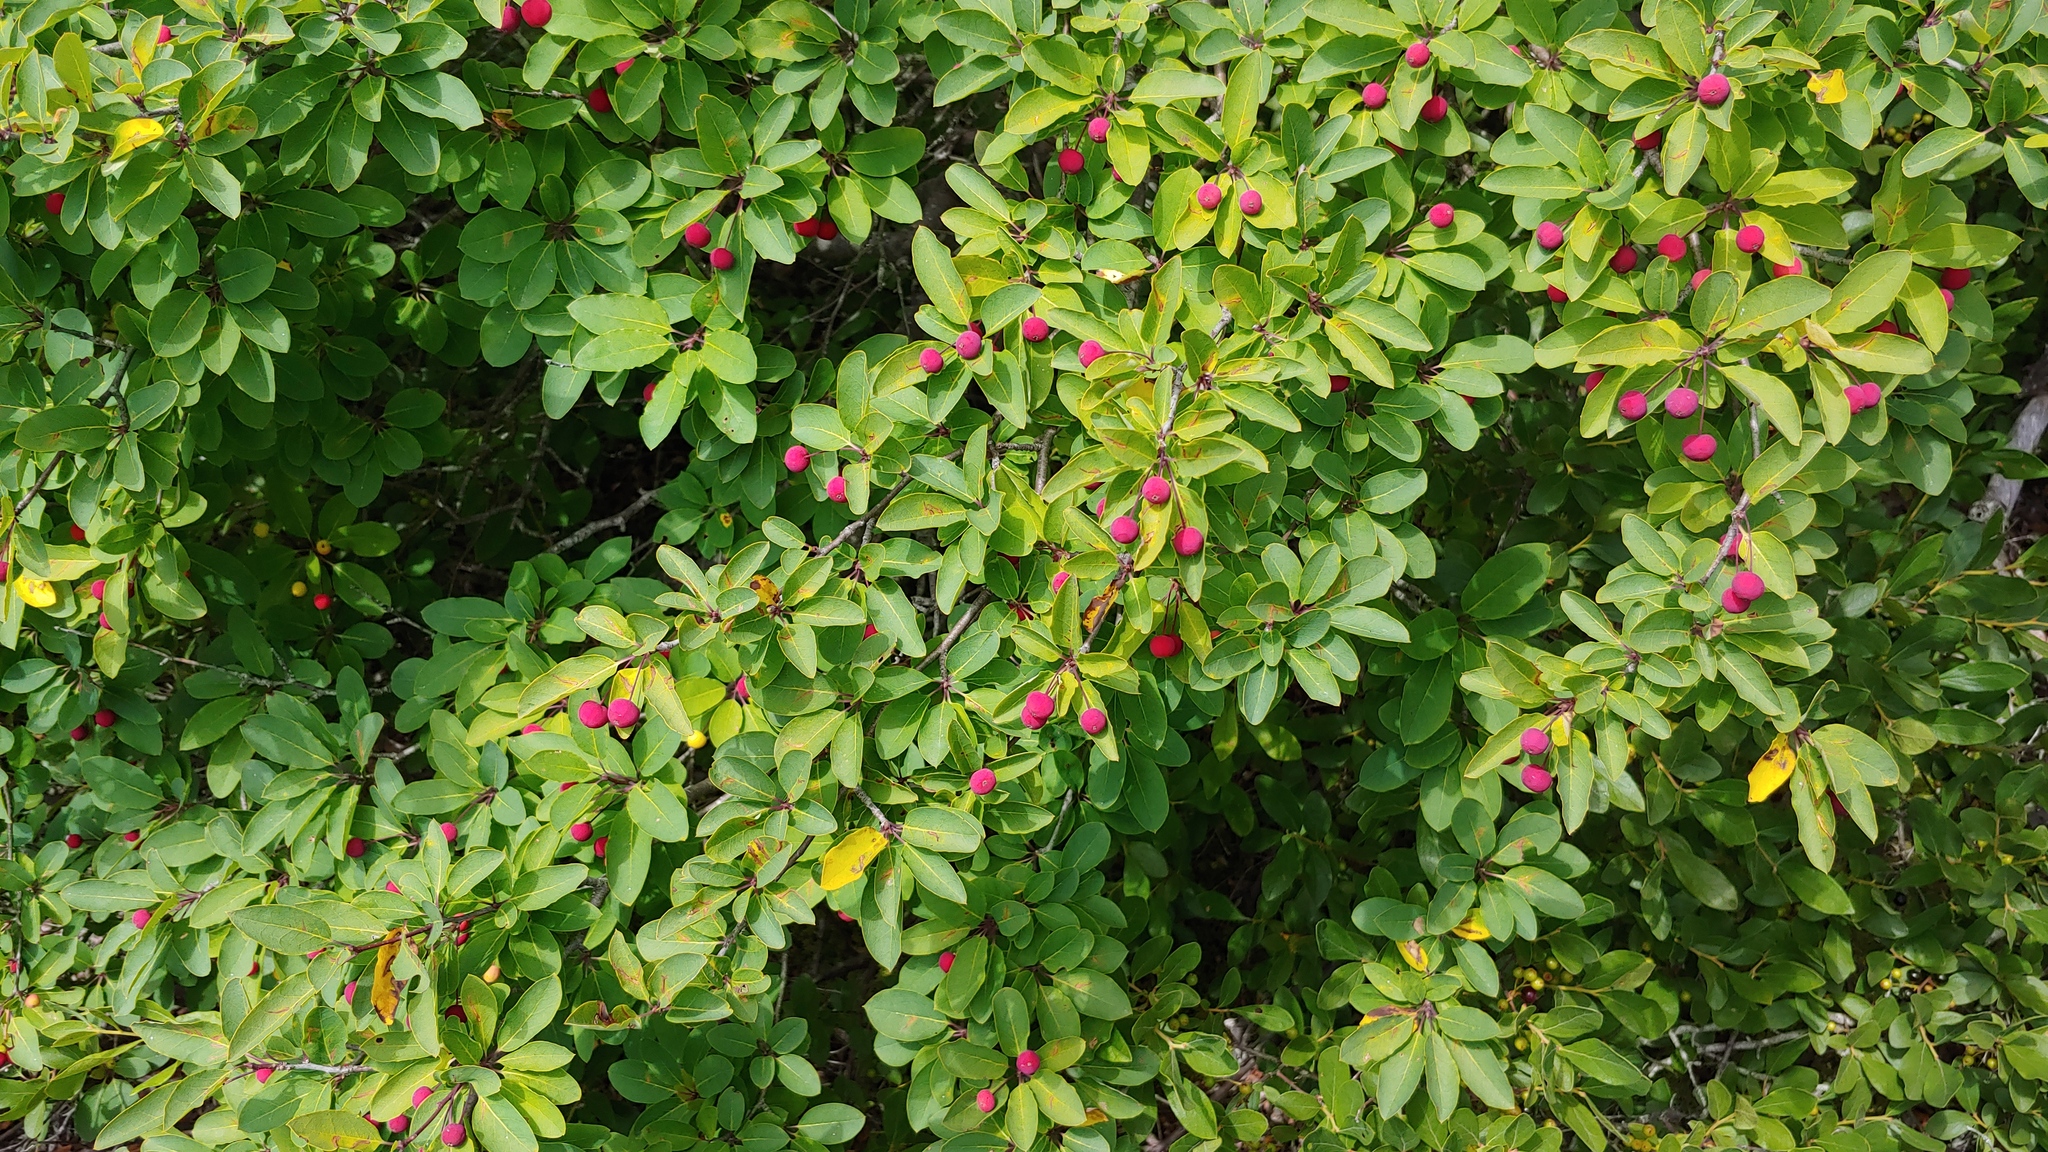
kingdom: Plantae
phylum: Tracheophyta
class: Magnoliopsida
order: Aquifoliales
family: Aquifoliaceae
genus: Ilex
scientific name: Ilex mucronata
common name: Catberry
